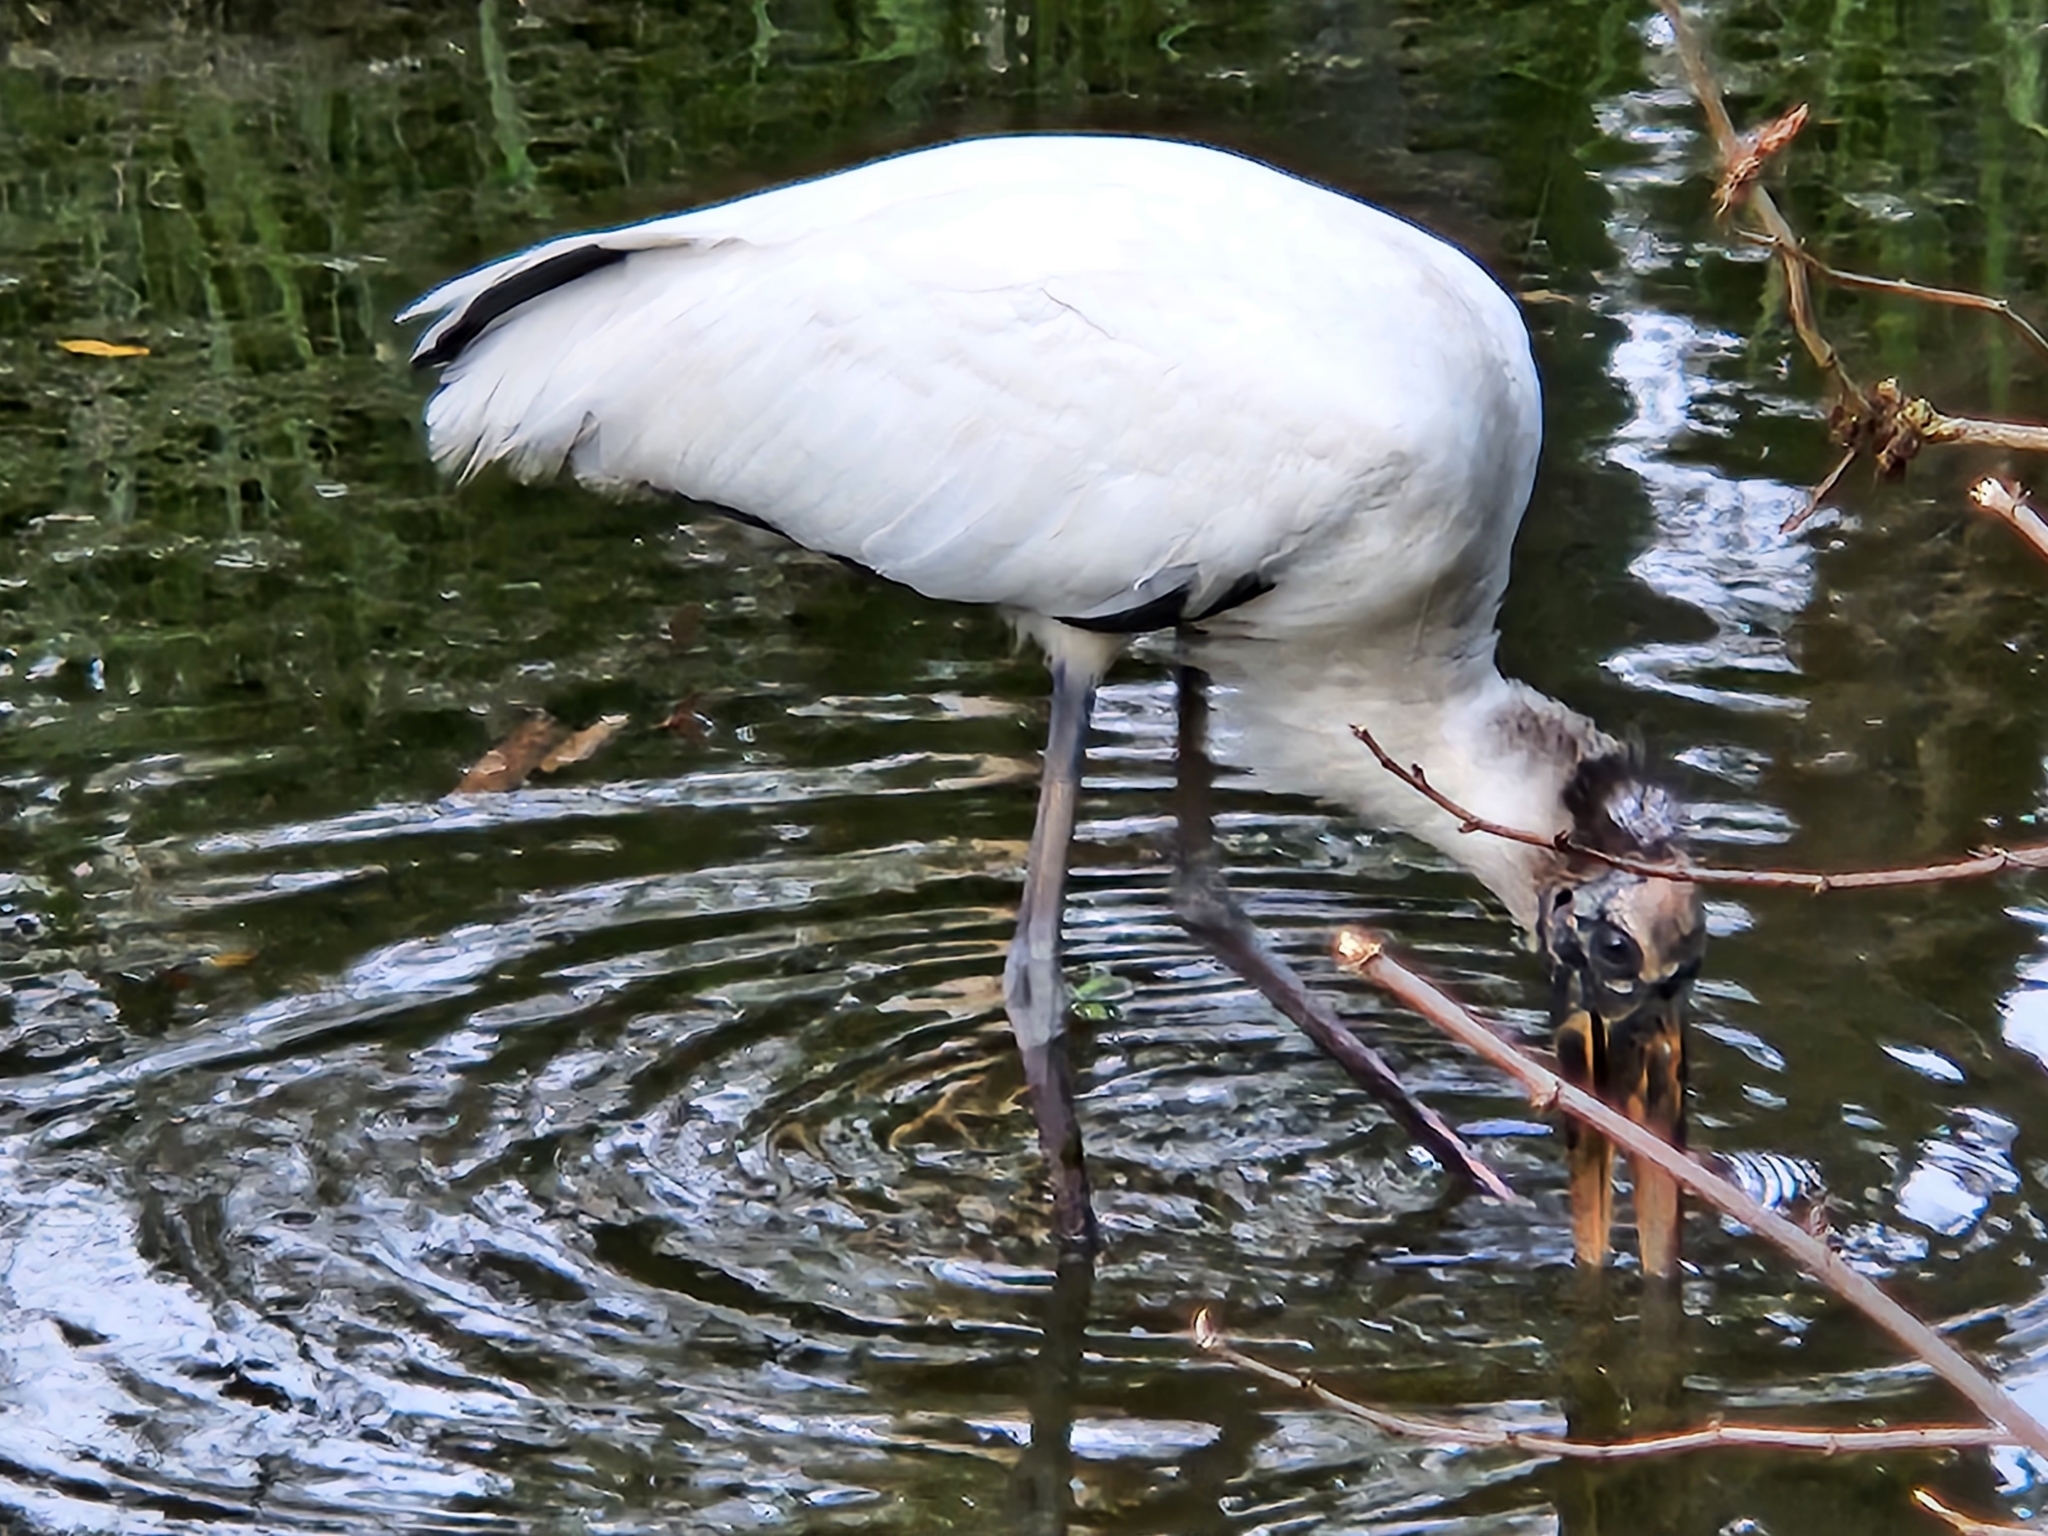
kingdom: Animalia
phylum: Chordata
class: Aves
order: Ciconiiformes
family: Ciconiidae
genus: Mycteria
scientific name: Mycteria americana
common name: Wood stork
